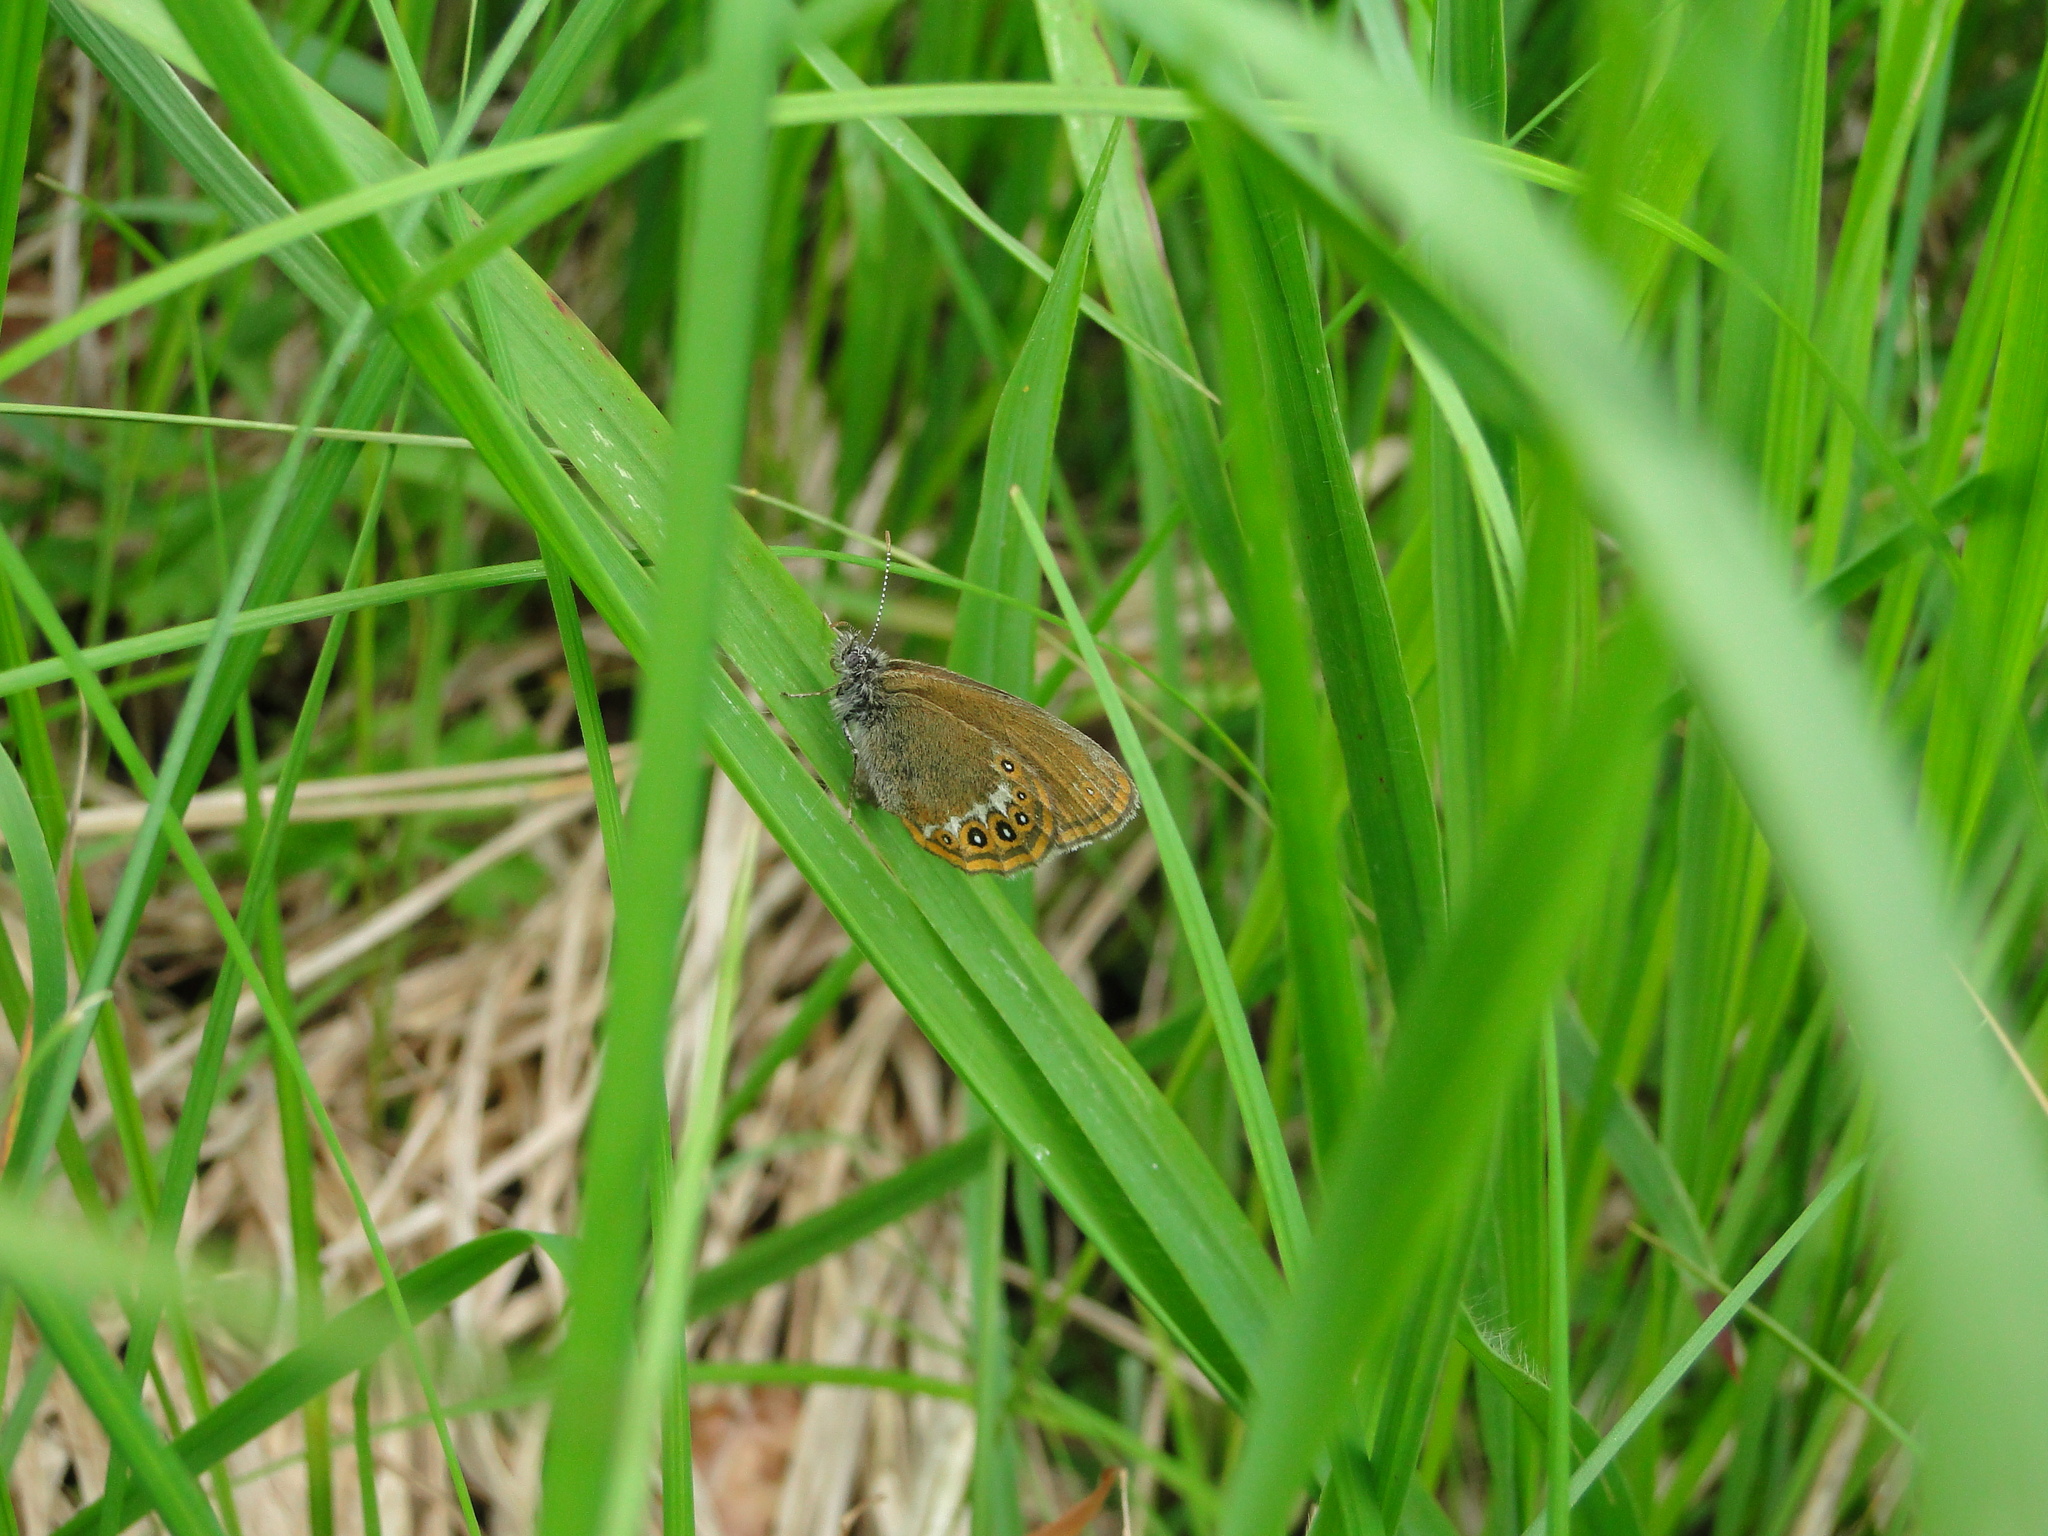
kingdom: Animalia
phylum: Arthropoda
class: Insecta
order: Lepidoptera
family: Nymphalidae
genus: Coenonympha
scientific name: Coenonympha hero
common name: Scarce heath
